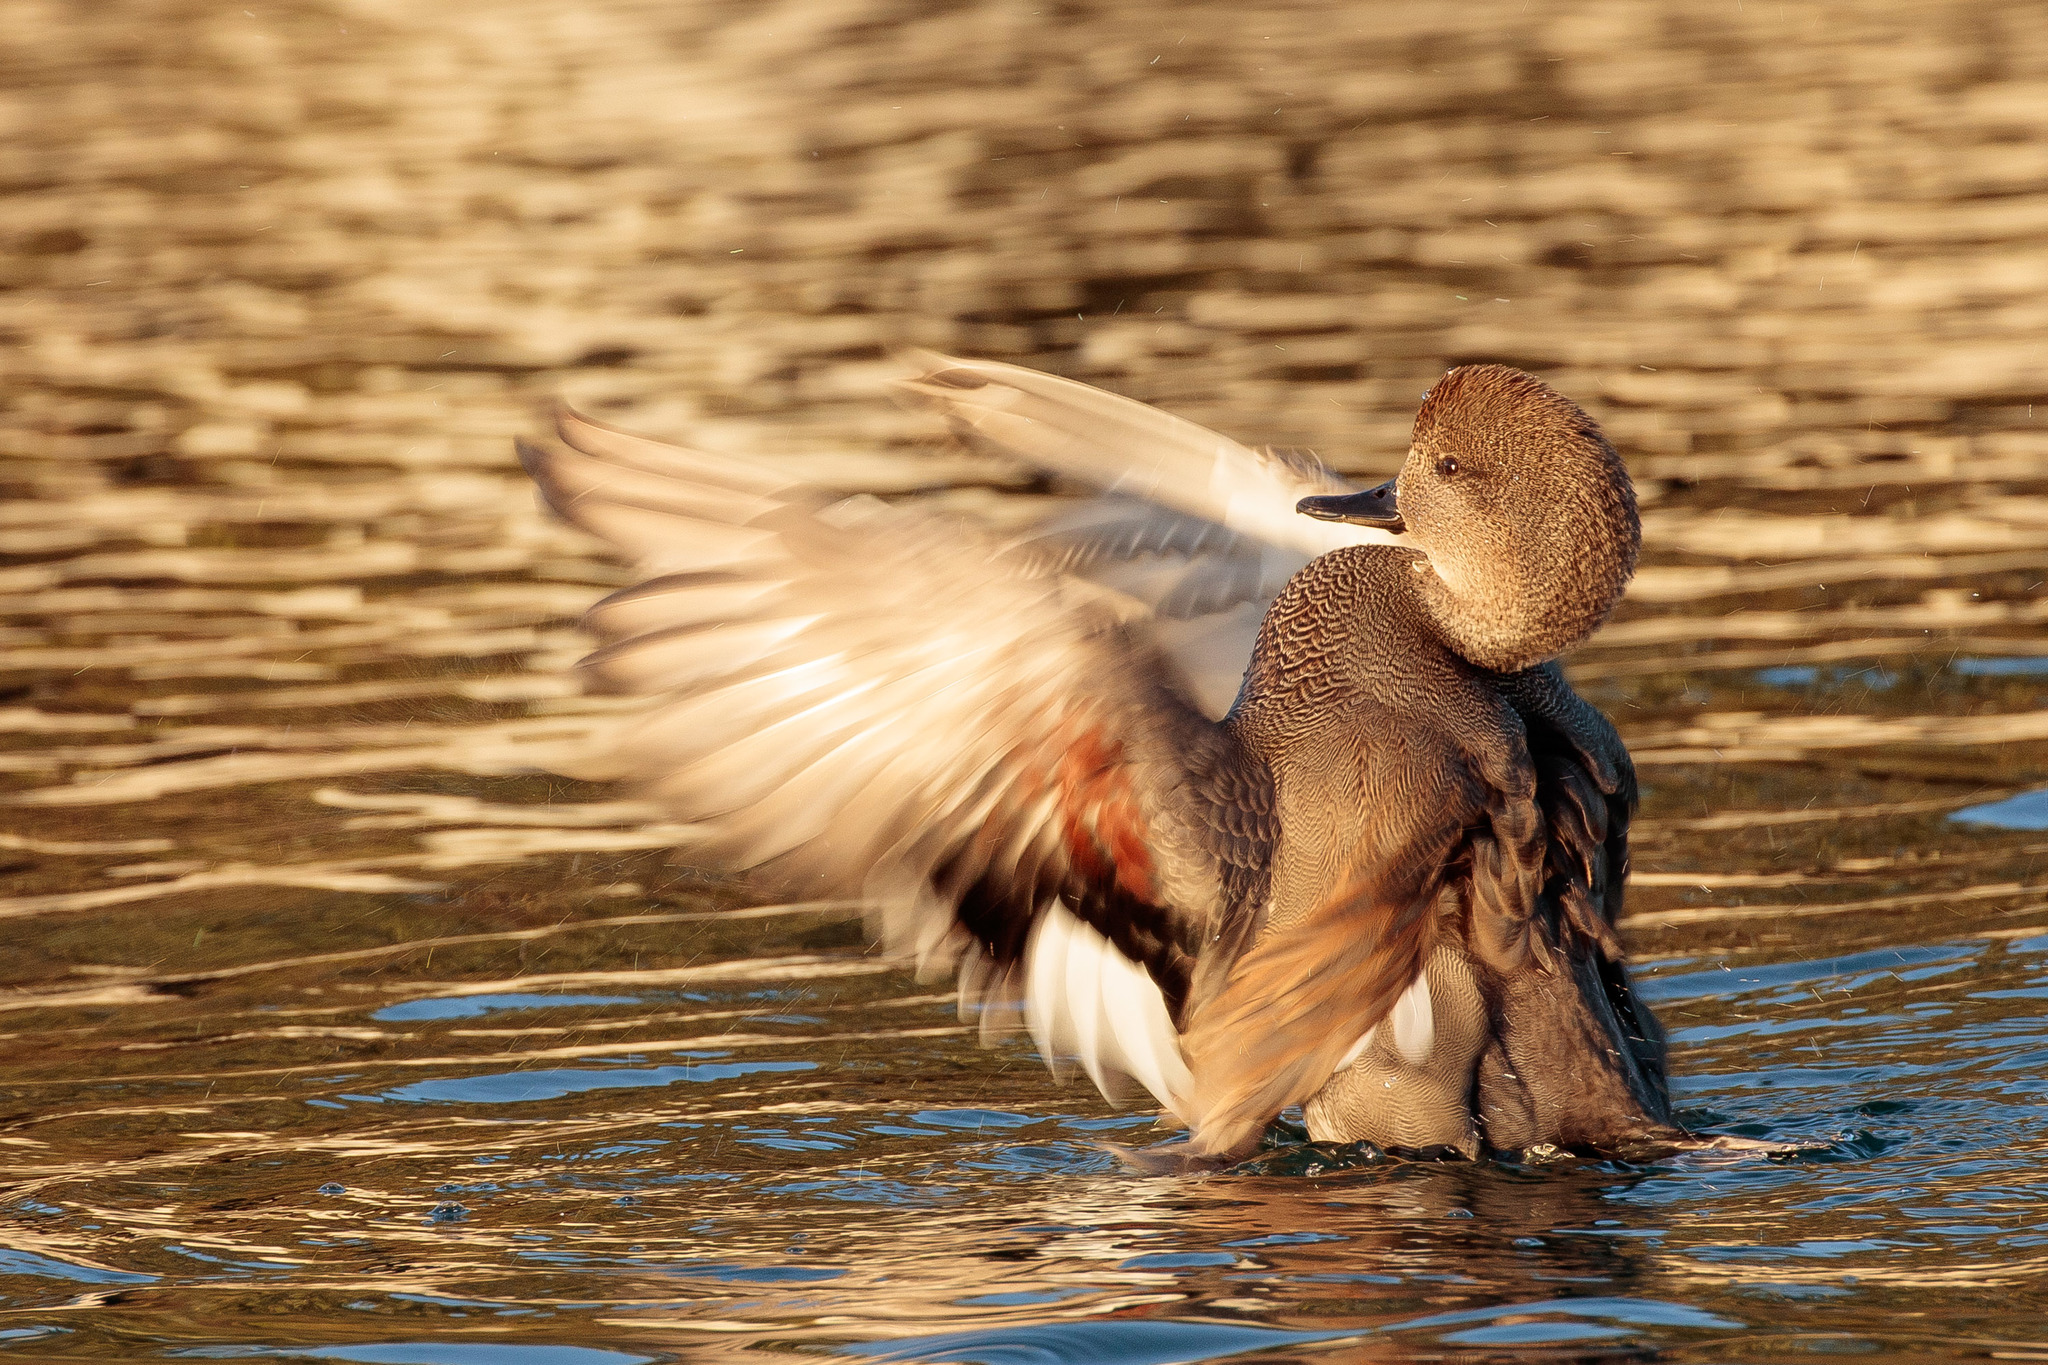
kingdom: Animalia
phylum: Chordata
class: Aves
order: Anseriformes
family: Anatidae
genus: Mareca
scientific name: Mareca strepera
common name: Gadwall
